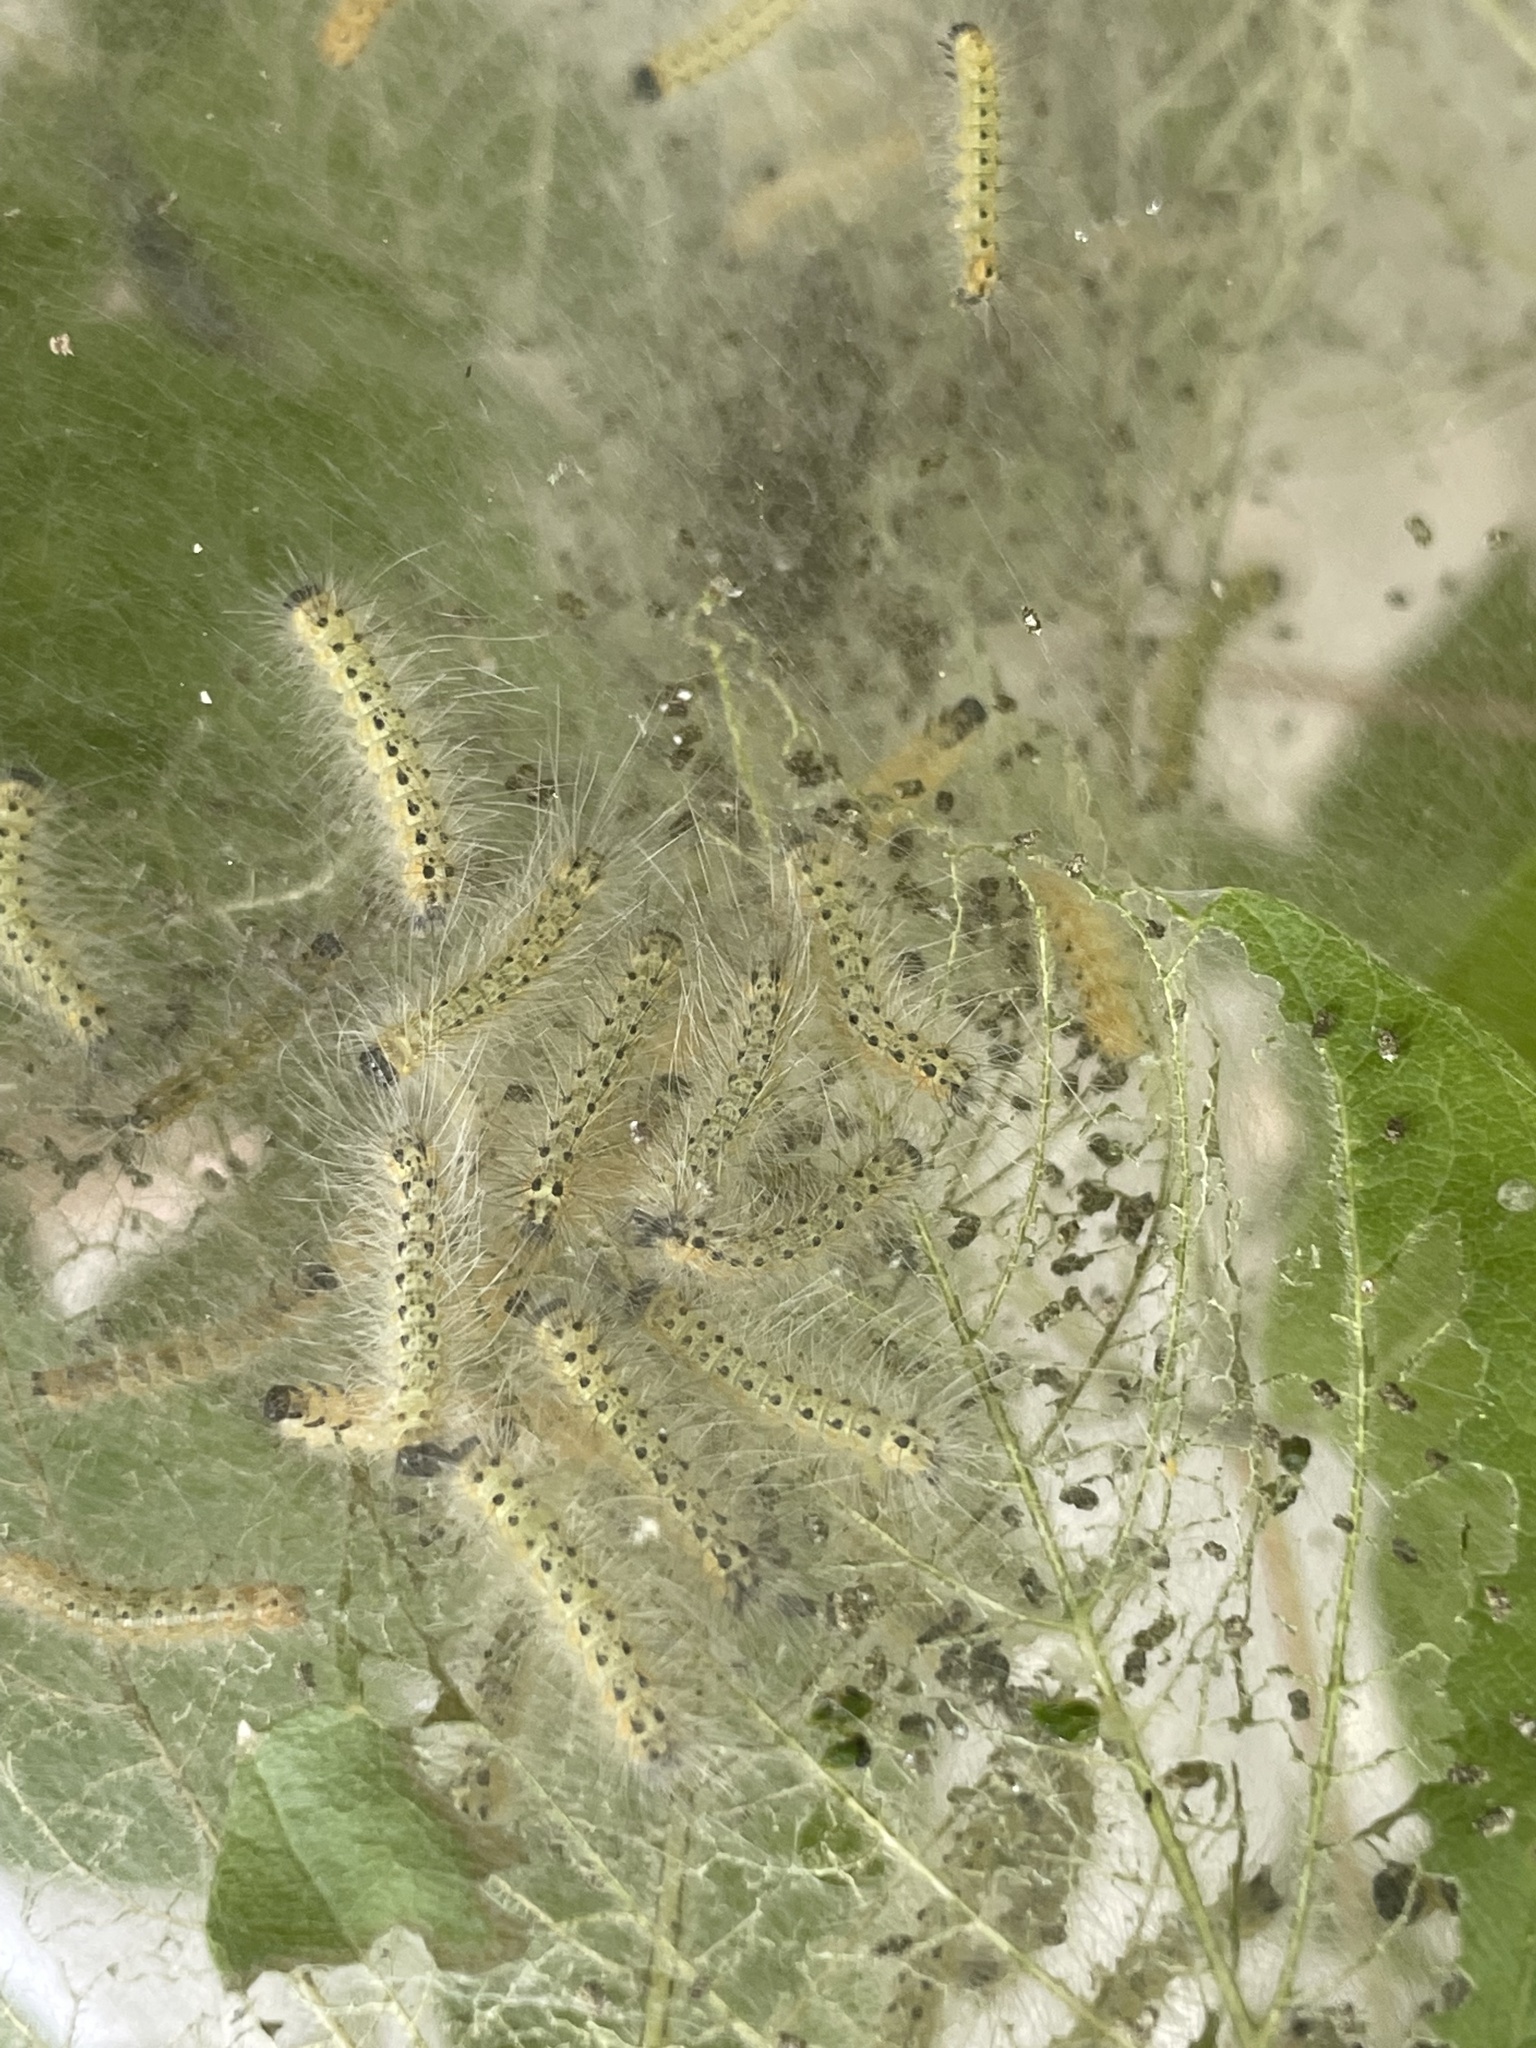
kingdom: Animalia
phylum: Arthropoda
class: Insecta
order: Lepidoptera
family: Erebidae
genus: Hyphantria
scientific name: Hyphantria cunea
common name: American white moth
